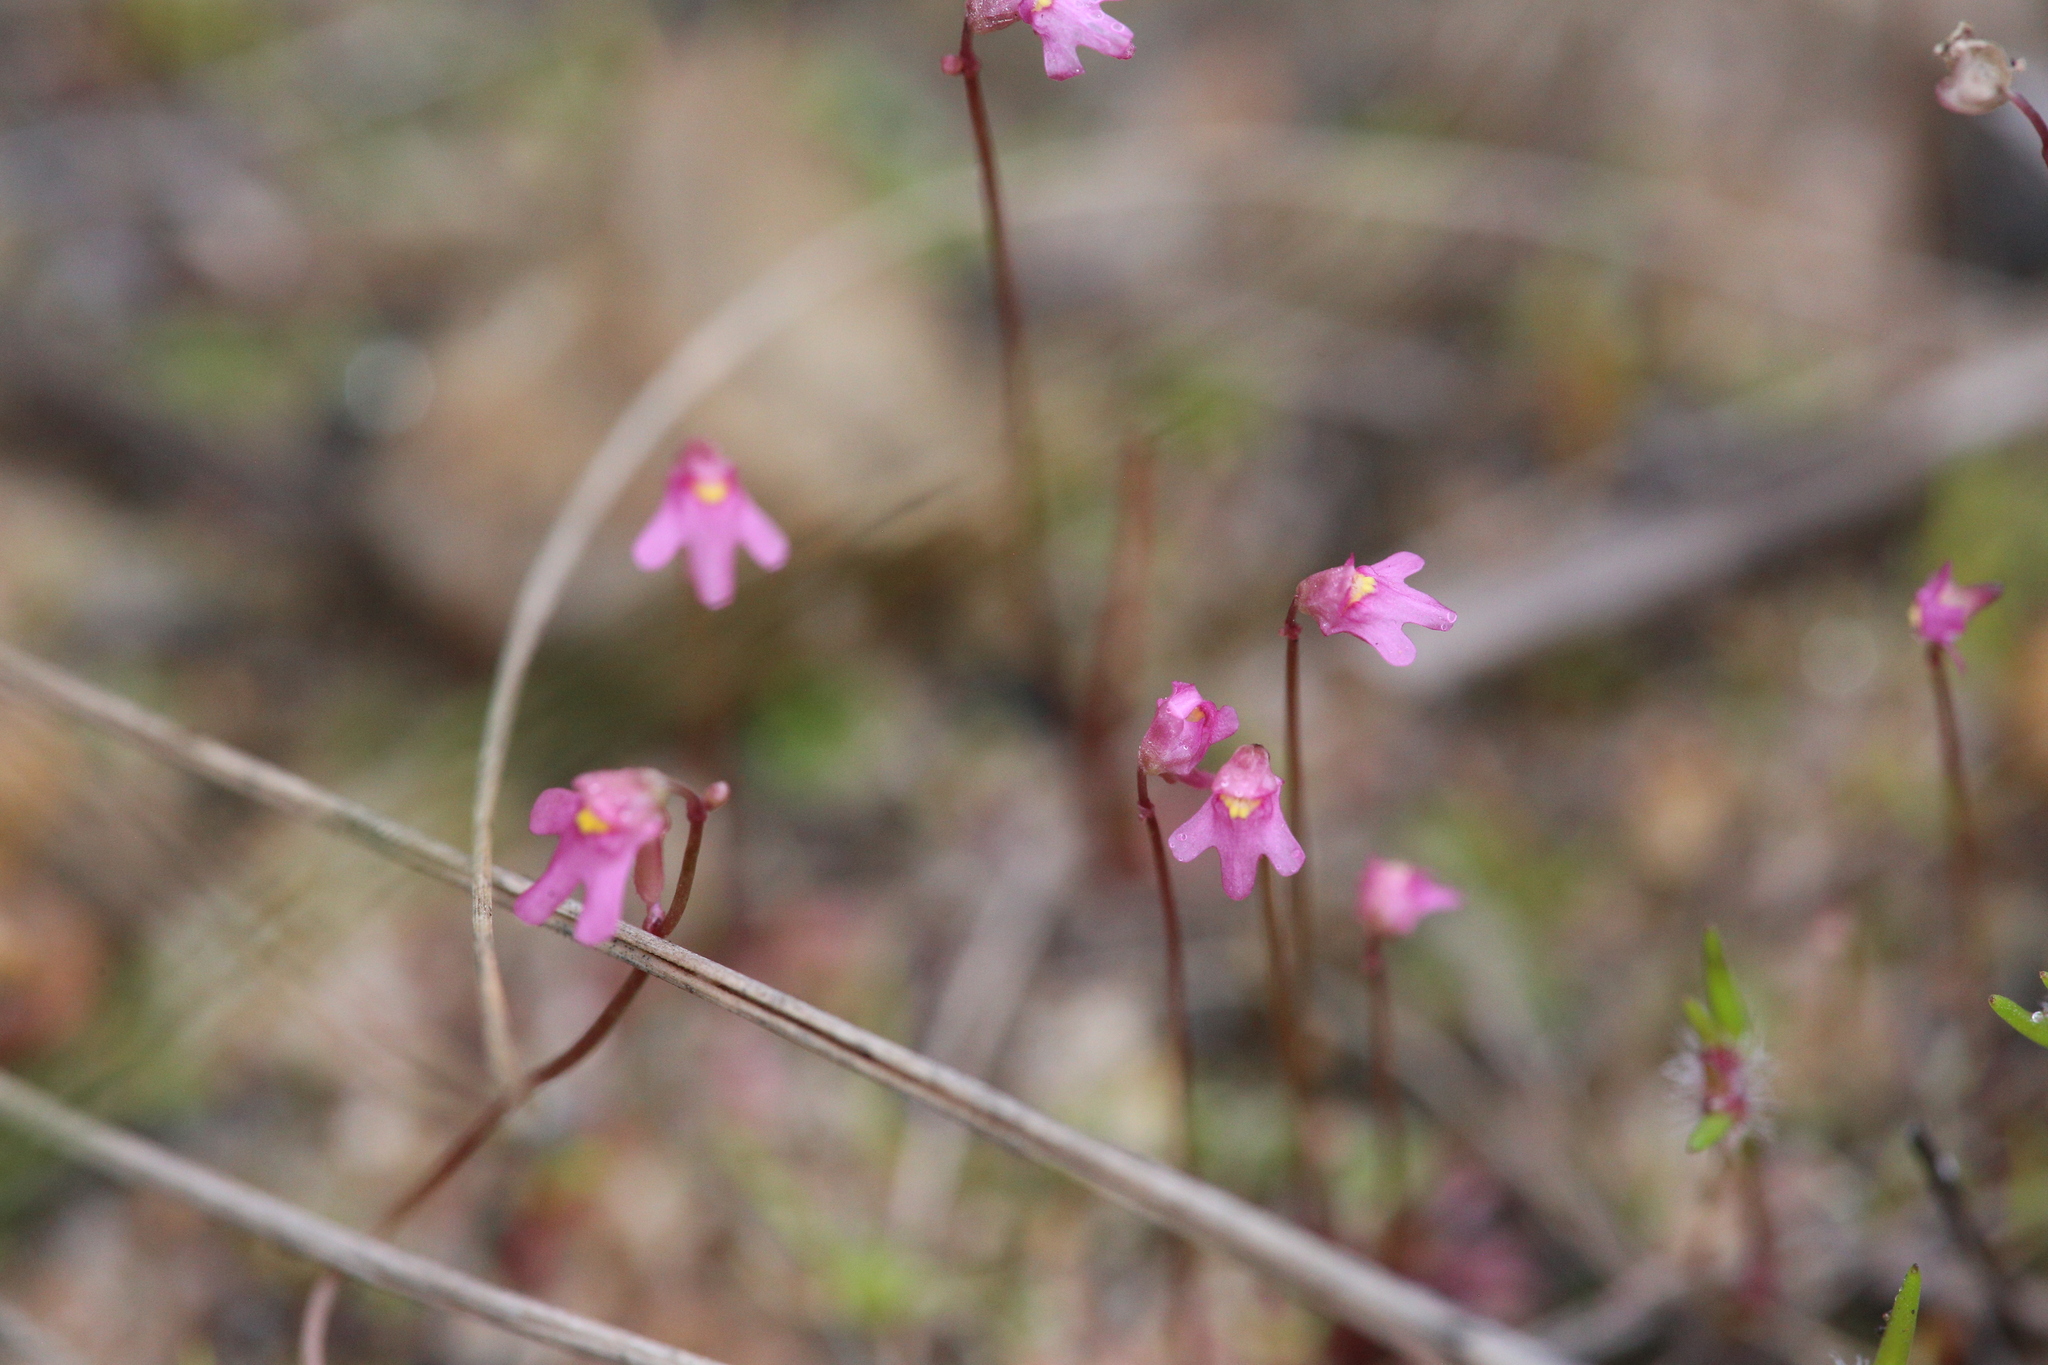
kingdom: Plantae
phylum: Tracheophyta
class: Magnoliopsida
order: Lamiales
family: Lentibulariaceae
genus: Utricularia
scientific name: Utricularia tenella
